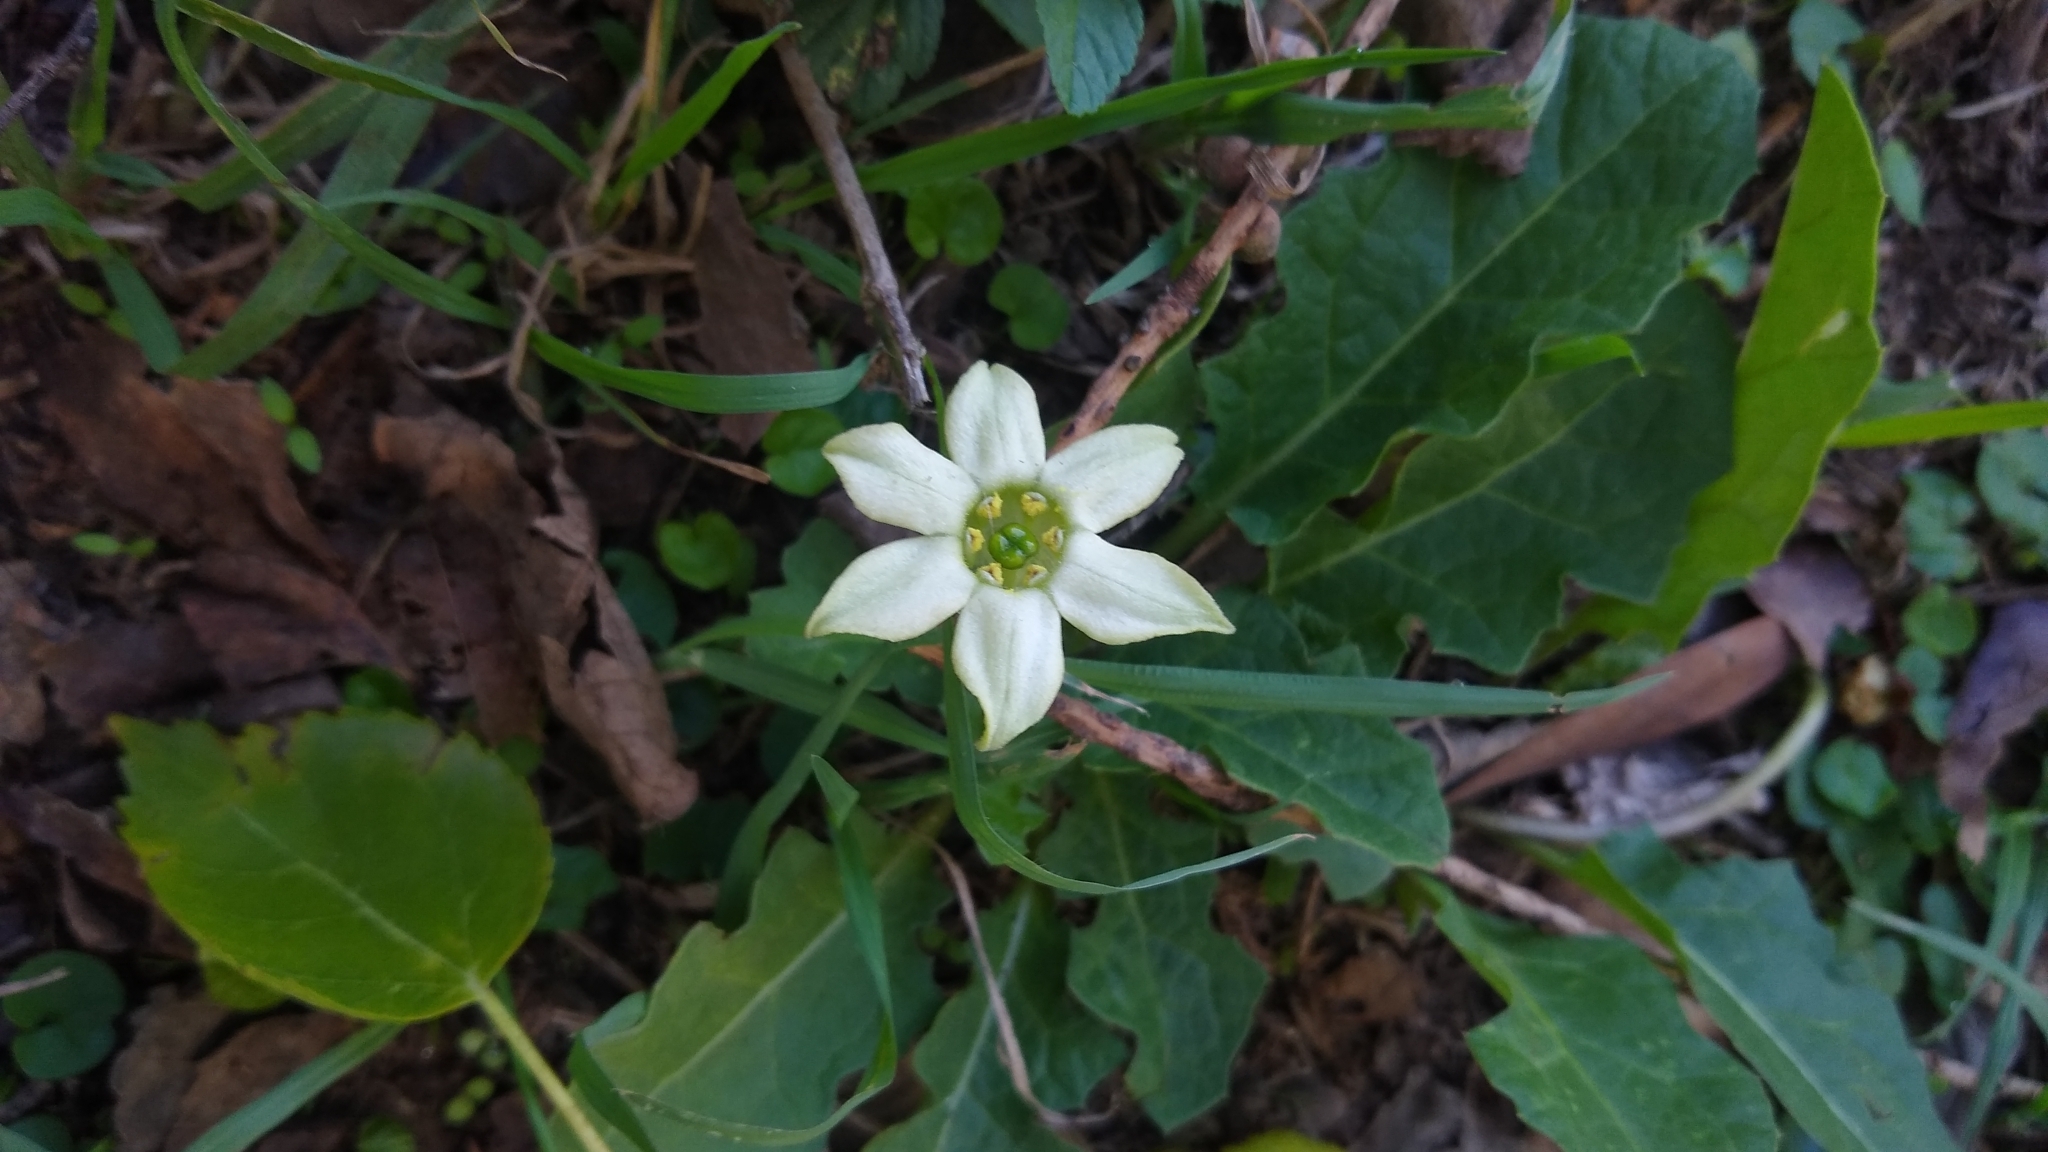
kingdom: Plantae
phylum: Tracheophyta
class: Magnoliopsida
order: Solanales
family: Solanaceae
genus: Jaborosa
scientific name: Jaborosa runcinata
